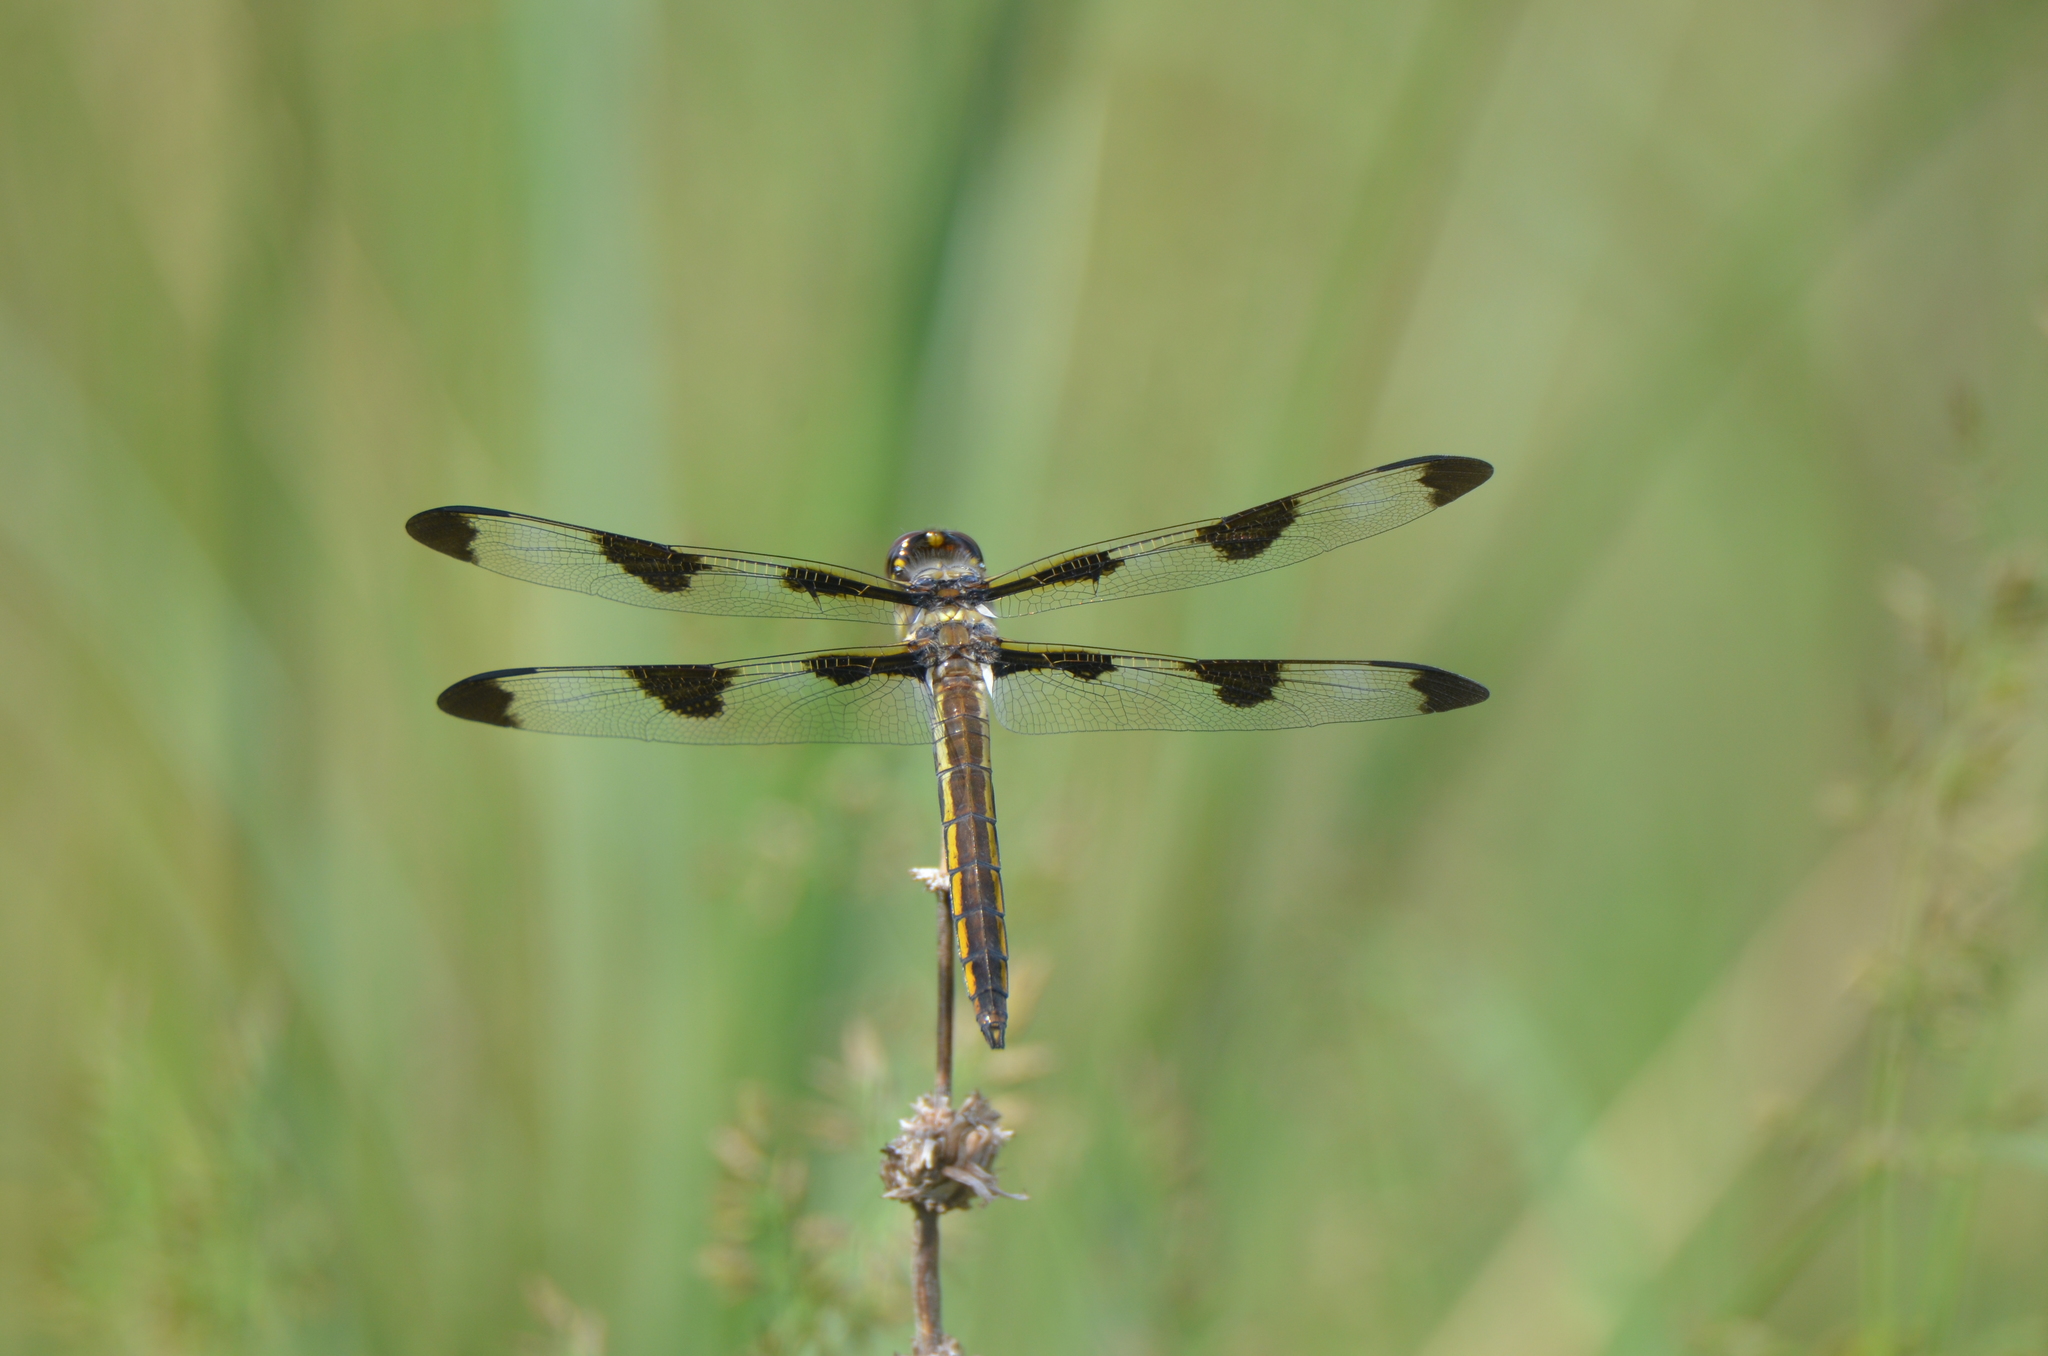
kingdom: Animalia
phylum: Arthropoda
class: Insecta
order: Odonata
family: Libellulidae
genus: Libellula
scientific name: Libellula pulchella
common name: Twelve-spotted skimmer
